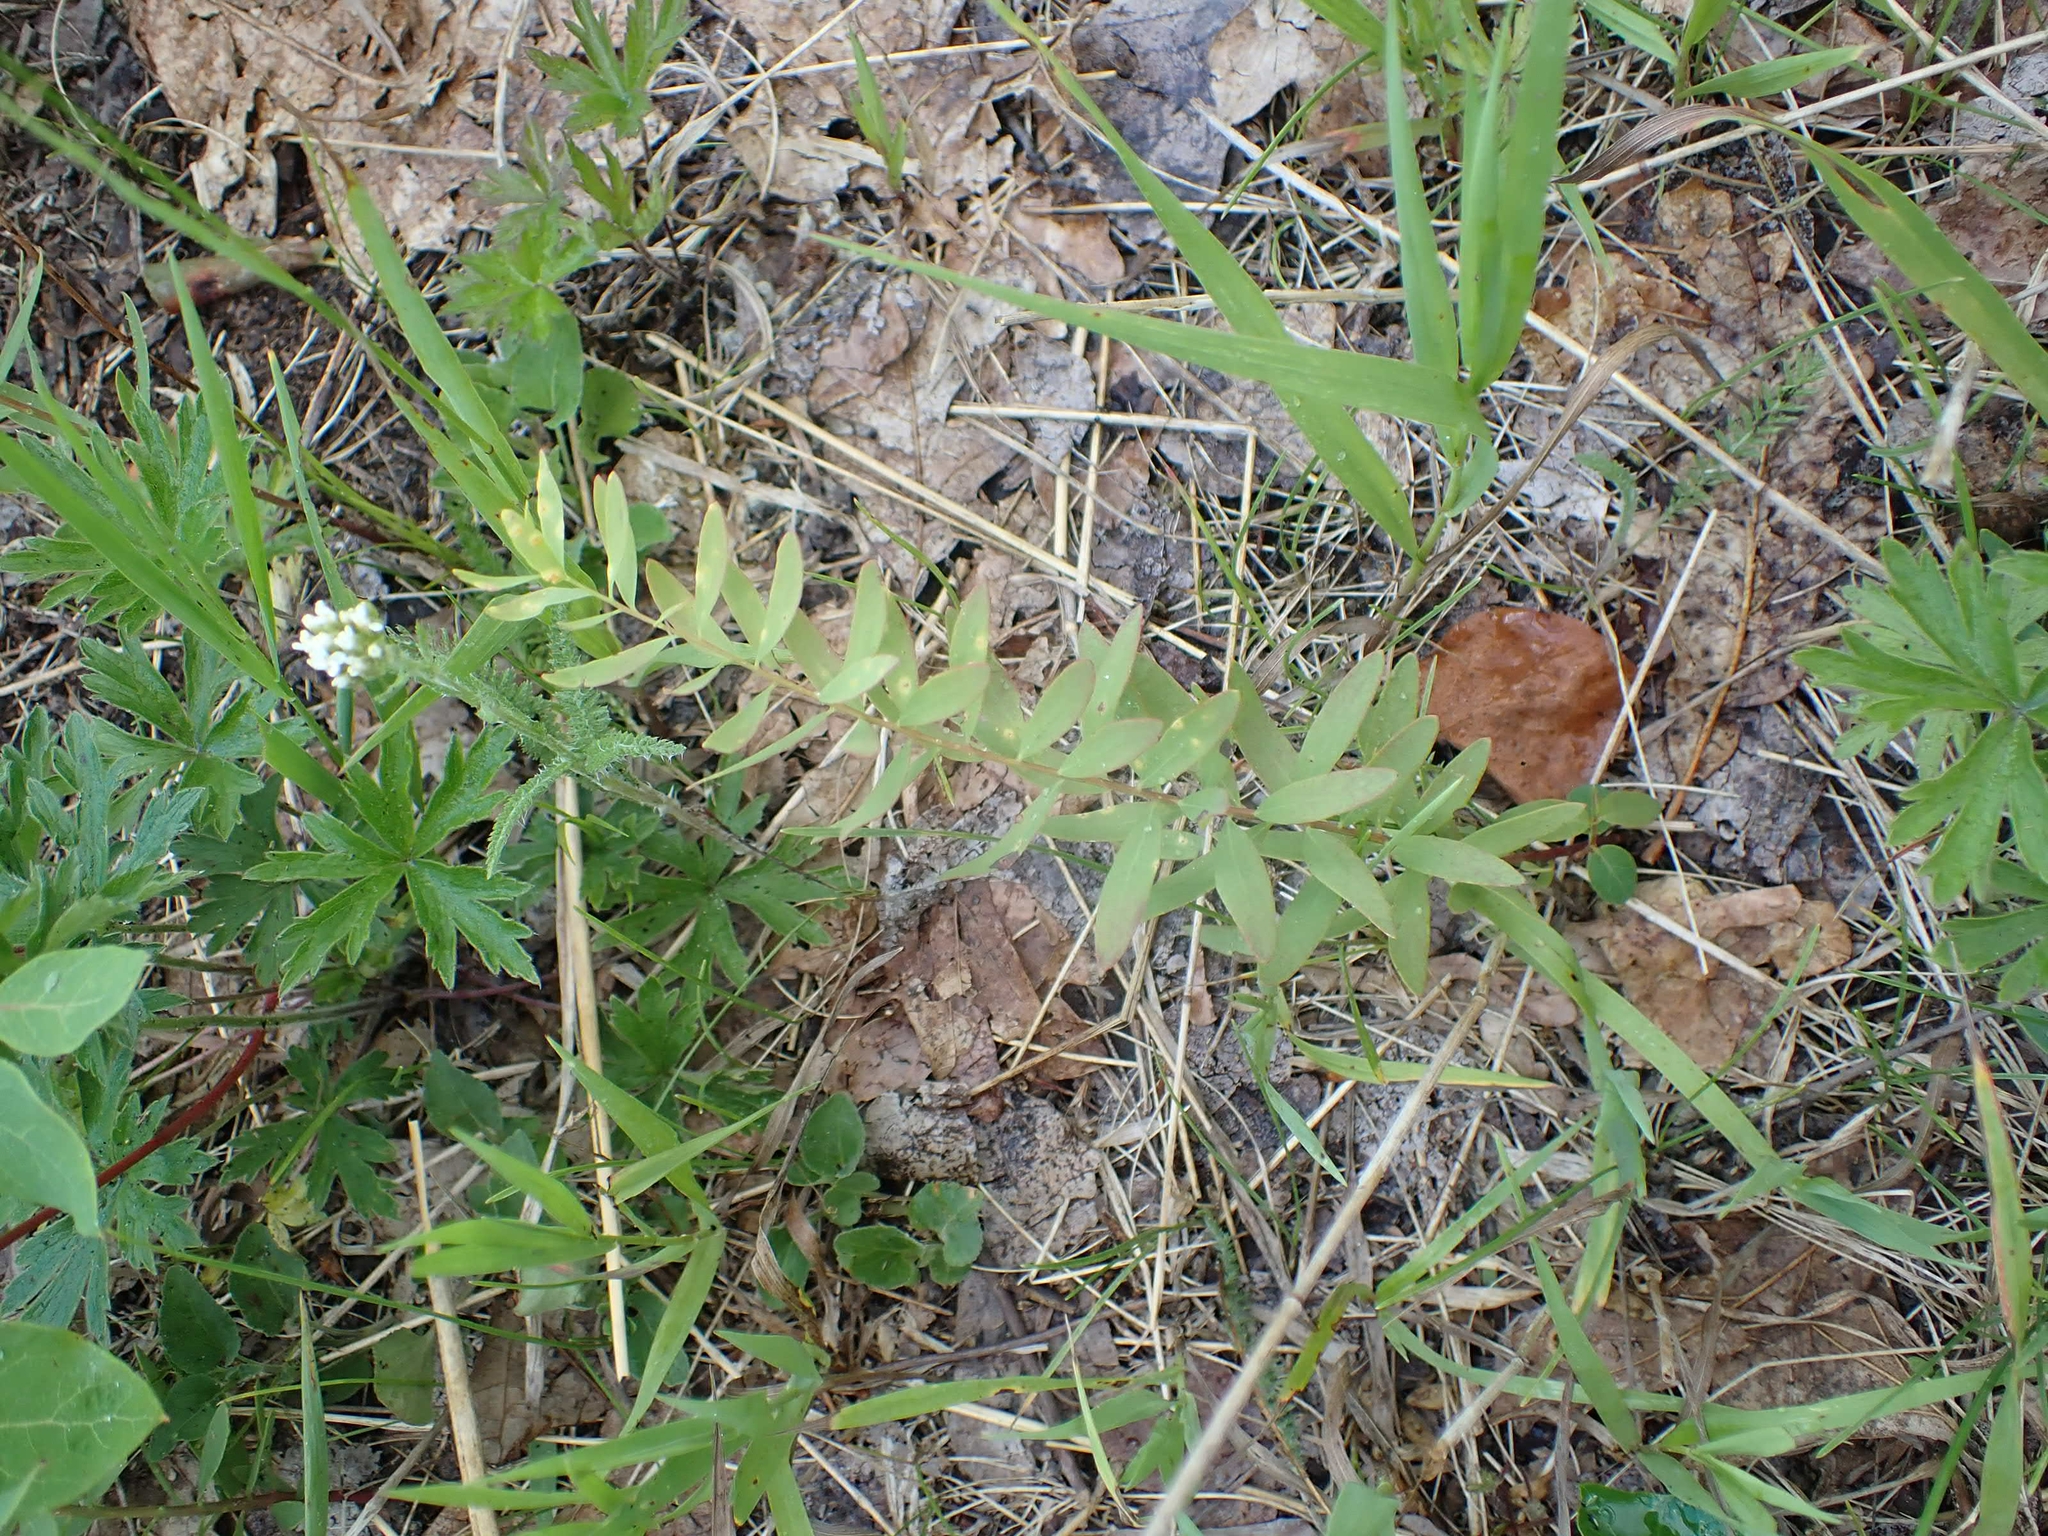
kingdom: Plantae
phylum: Tracheophyta
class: Magnoliopsida
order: Santalales
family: Comandraceae
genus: Comandra
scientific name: Comandra umbellata
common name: Bastard toadflax
